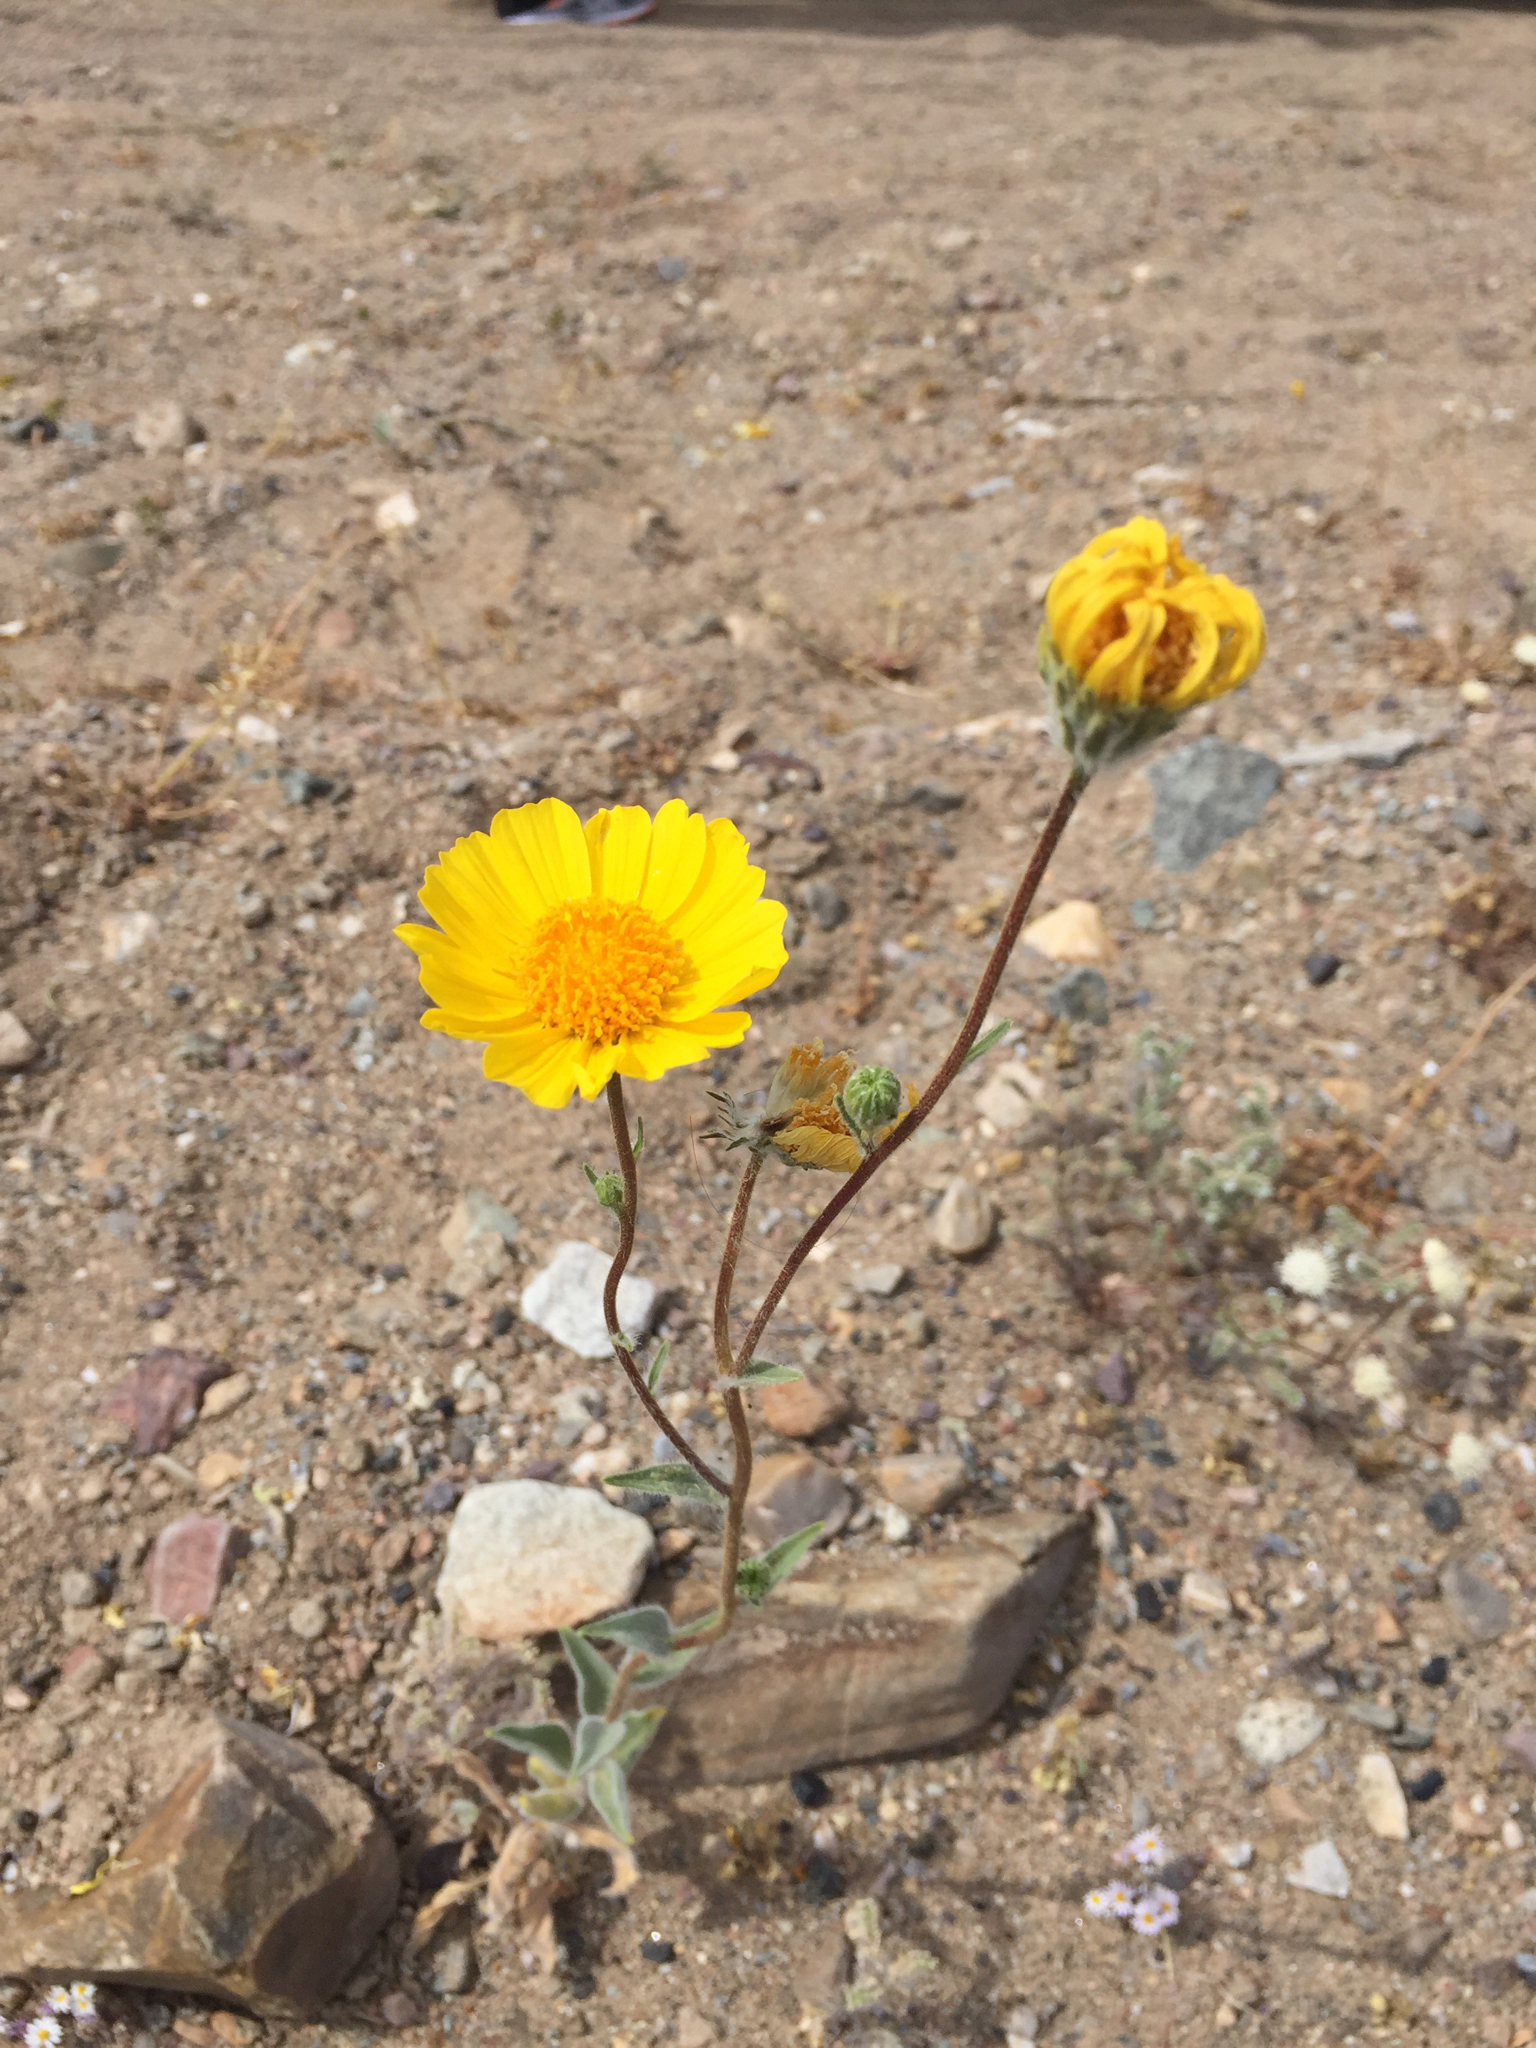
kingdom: Plantae
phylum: Tracheophyta
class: Magnoliopsida
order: Asterales
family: Asteraceae
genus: Geraea
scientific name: Geraea canescens
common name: Desert-gold
